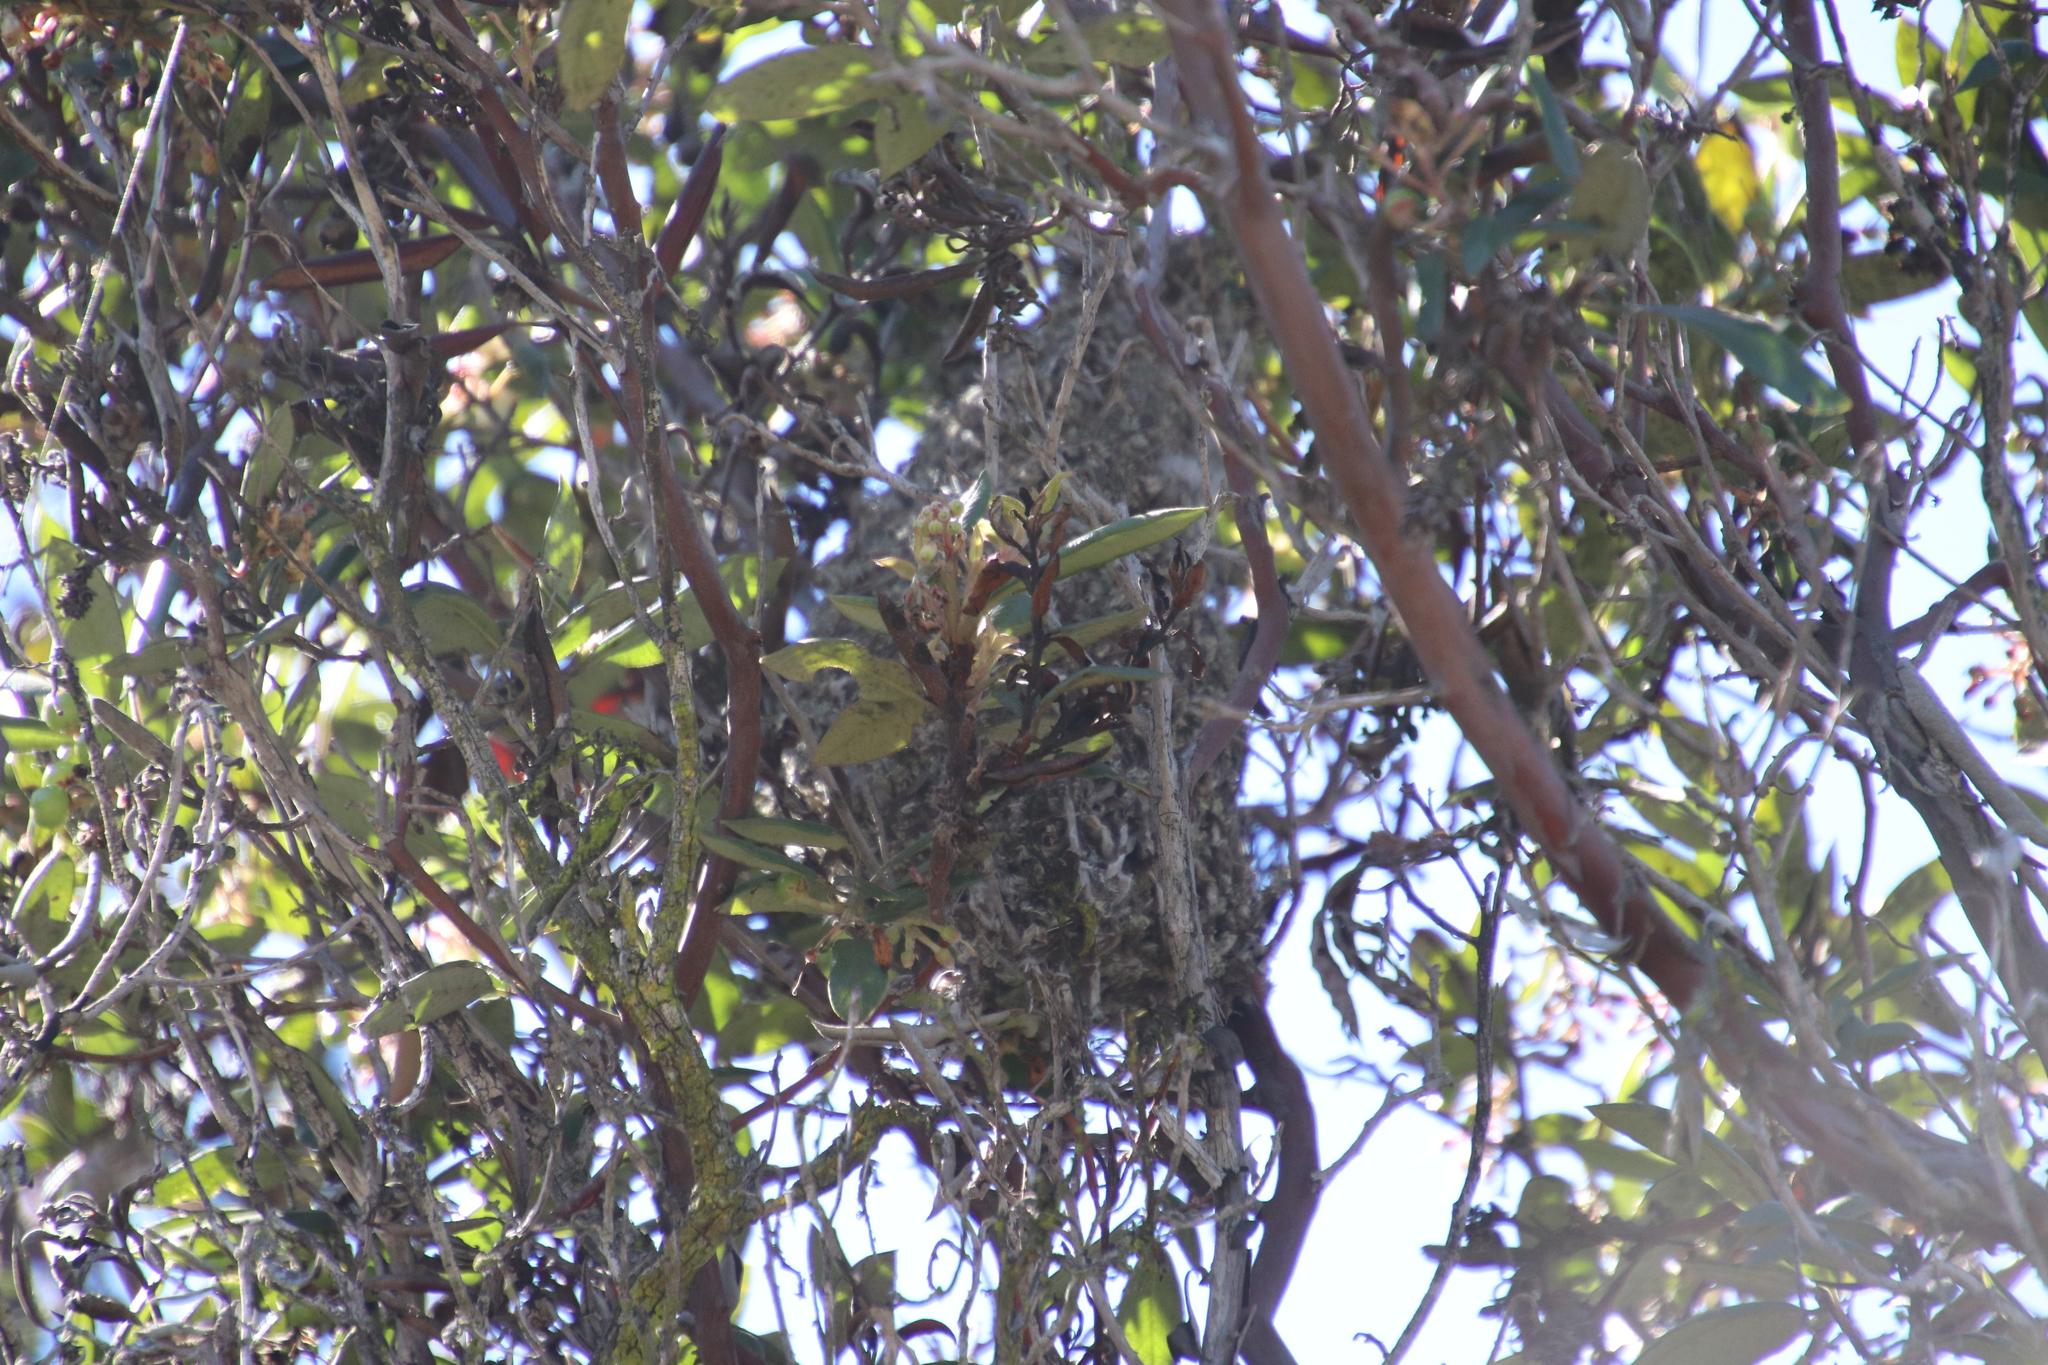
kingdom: Animalia
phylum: Chordata
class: Aves
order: Passeriformes
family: Aegithalidae
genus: Psaltriparus
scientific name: Psaltriparus minimus
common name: American bushtit
